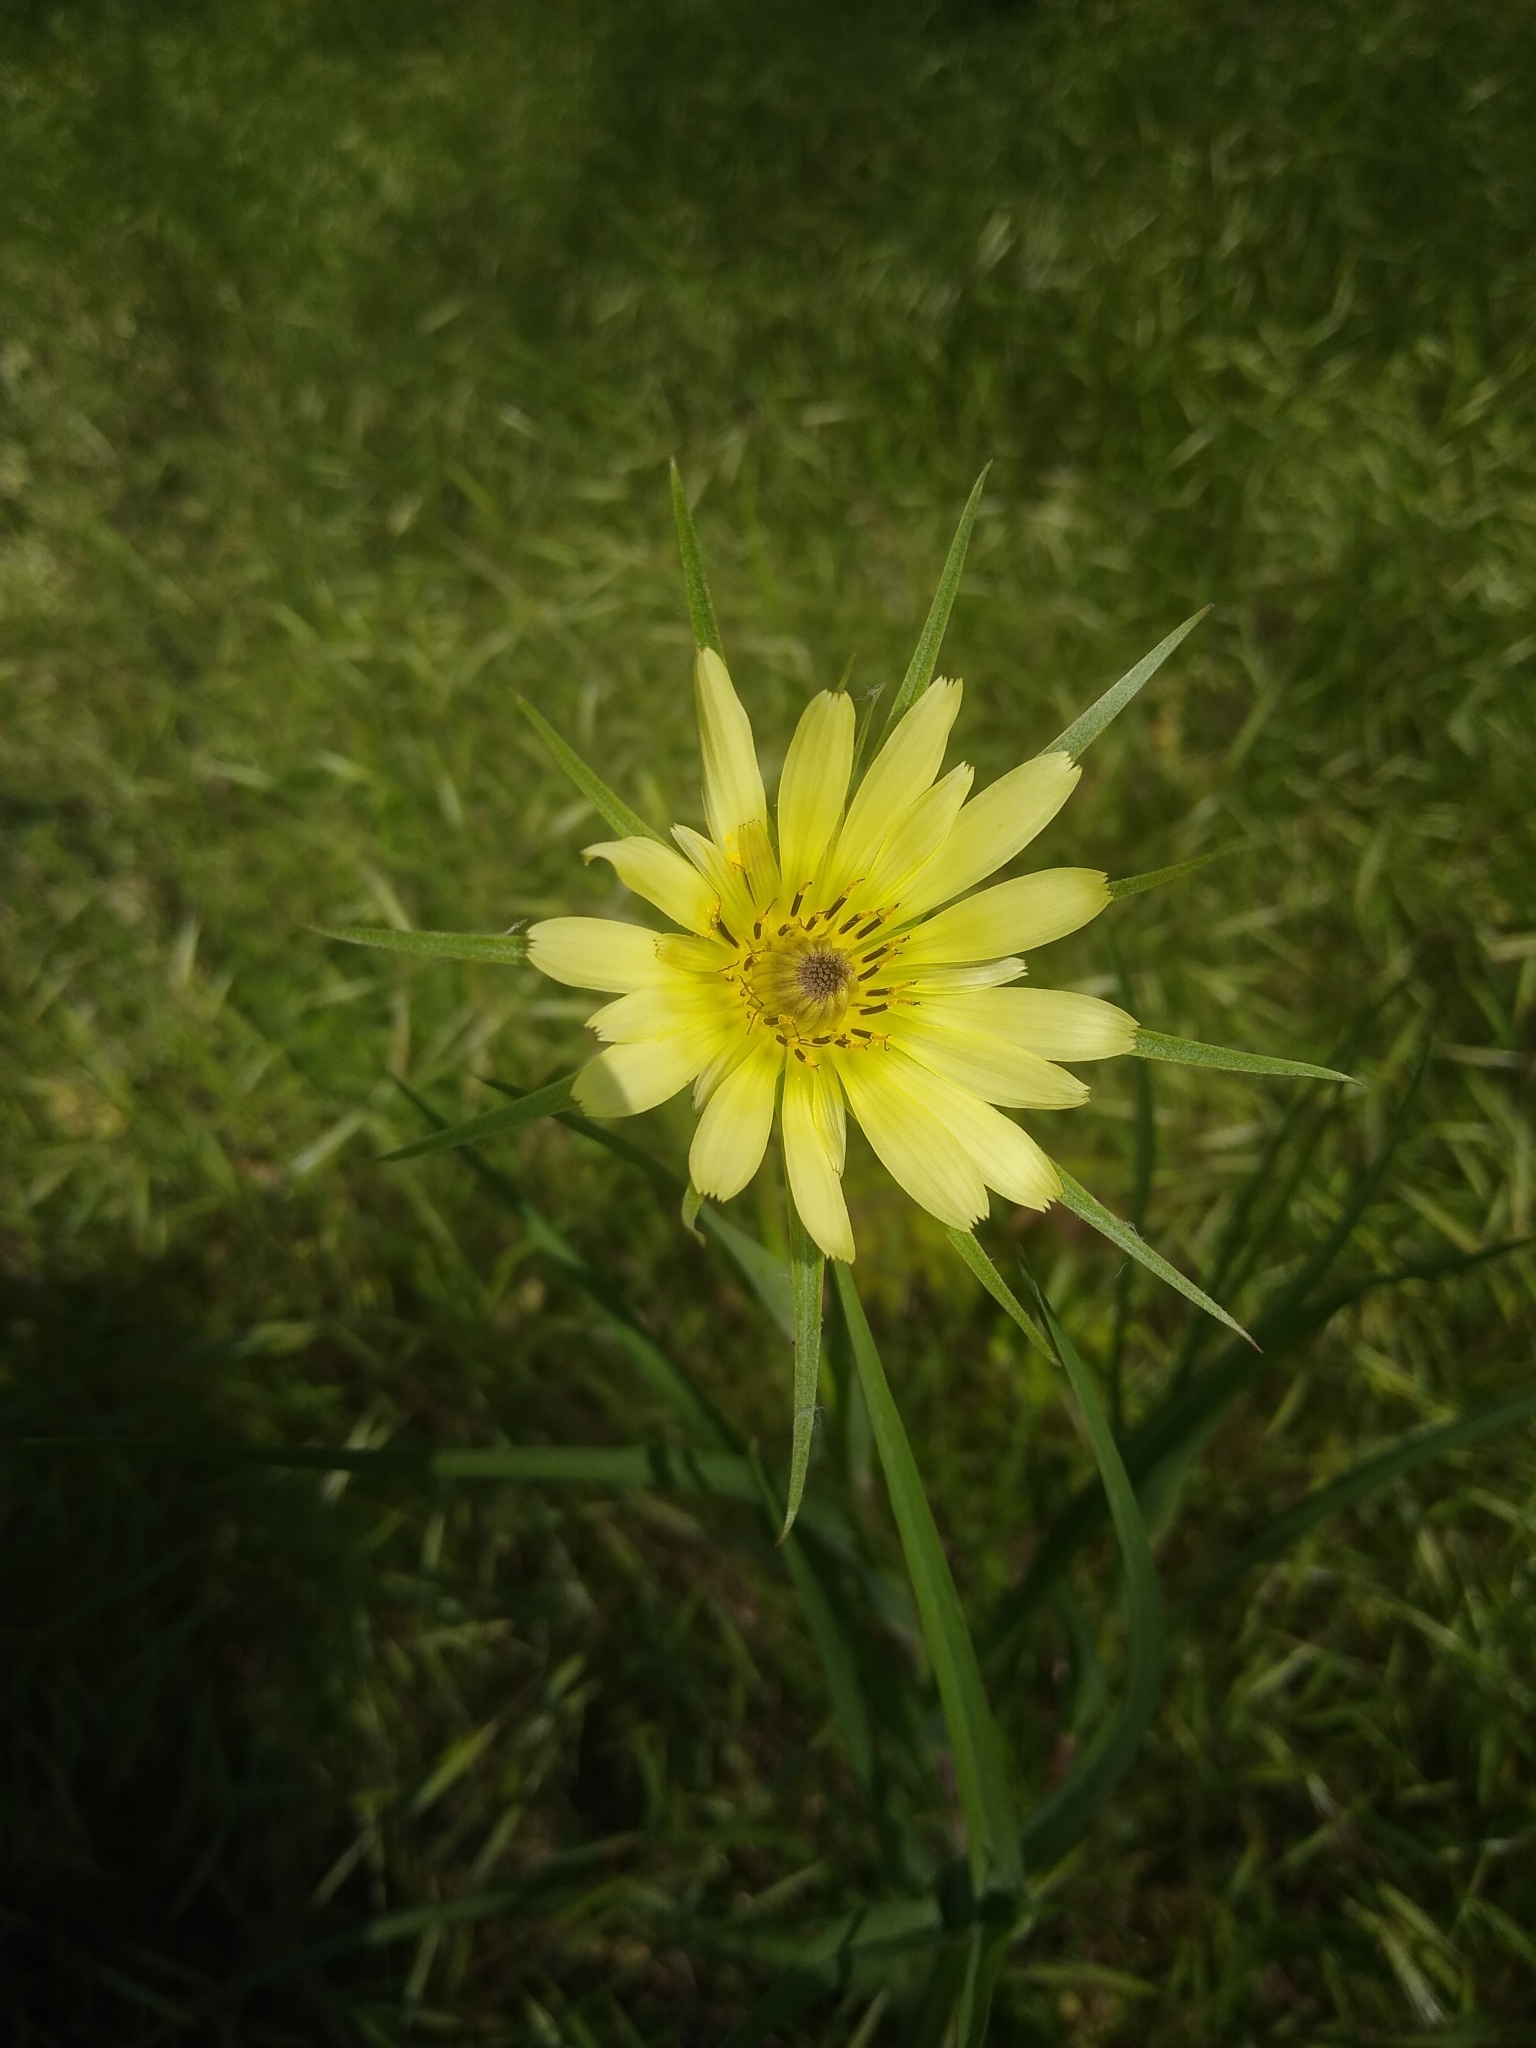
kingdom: Plantae
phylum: Tracheophyta
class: Magnoliopsida
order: Asterales
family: Asteraceae
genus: Tragopogon
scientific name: Tragopogon dubius
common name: Yellow salsify
